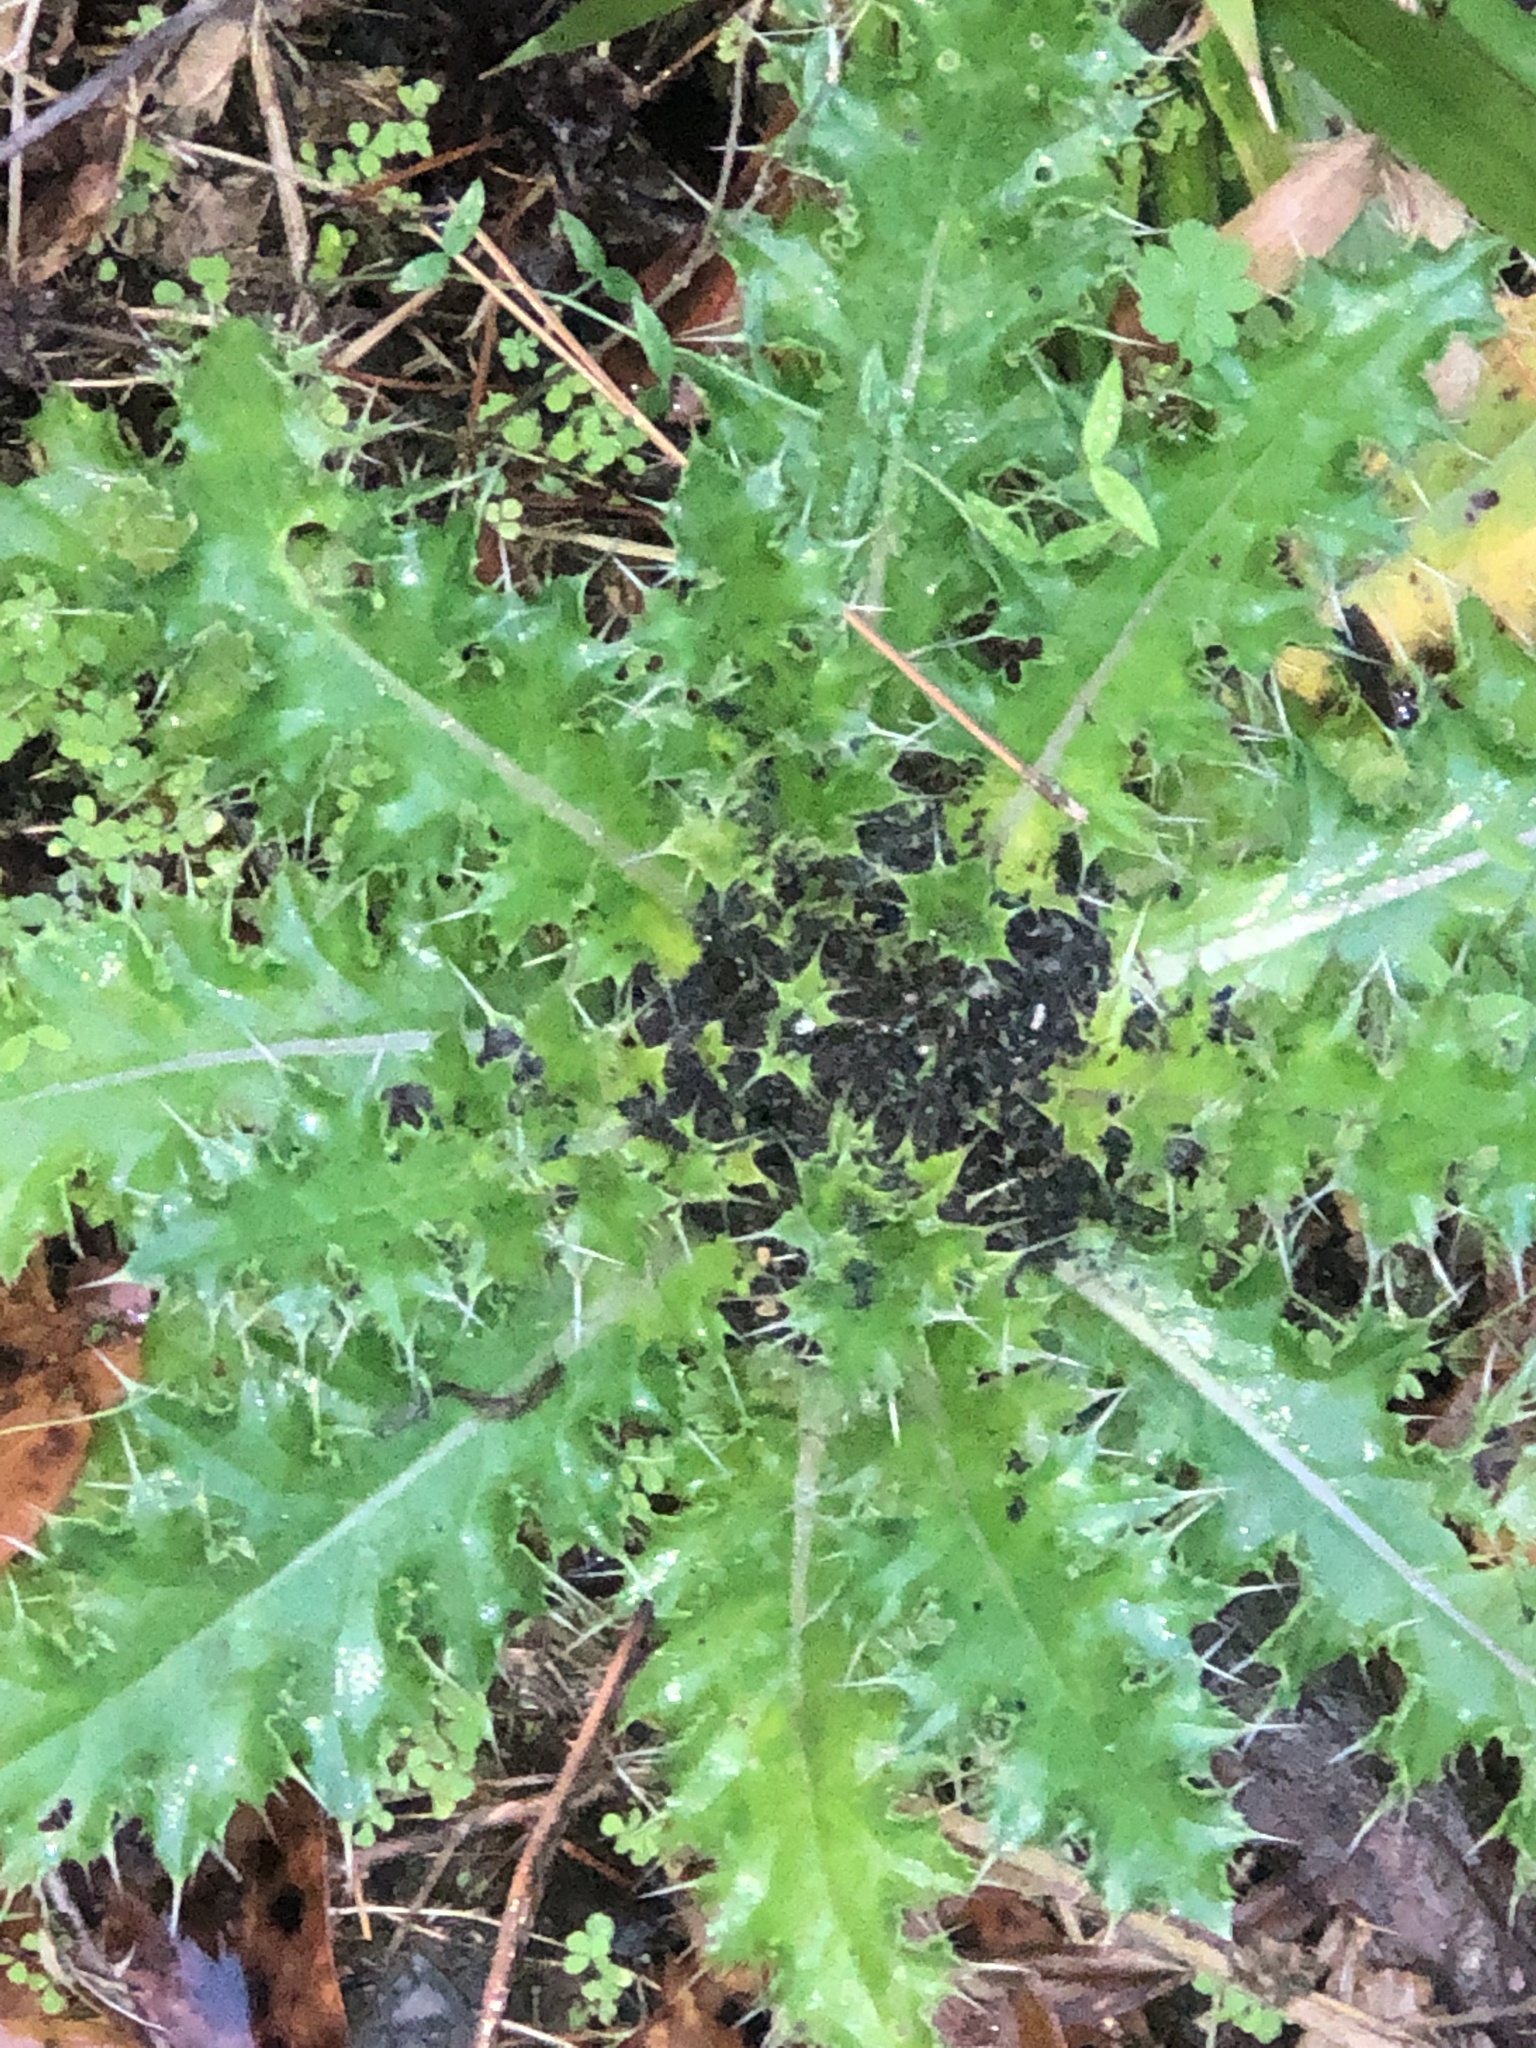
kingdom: Plantae
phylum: Tracheophyta
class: Magnoliopsida
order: Asterales
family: Asteraceae
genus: Cirsium
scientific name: Cirsium horridulum
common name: Bristly thistle
